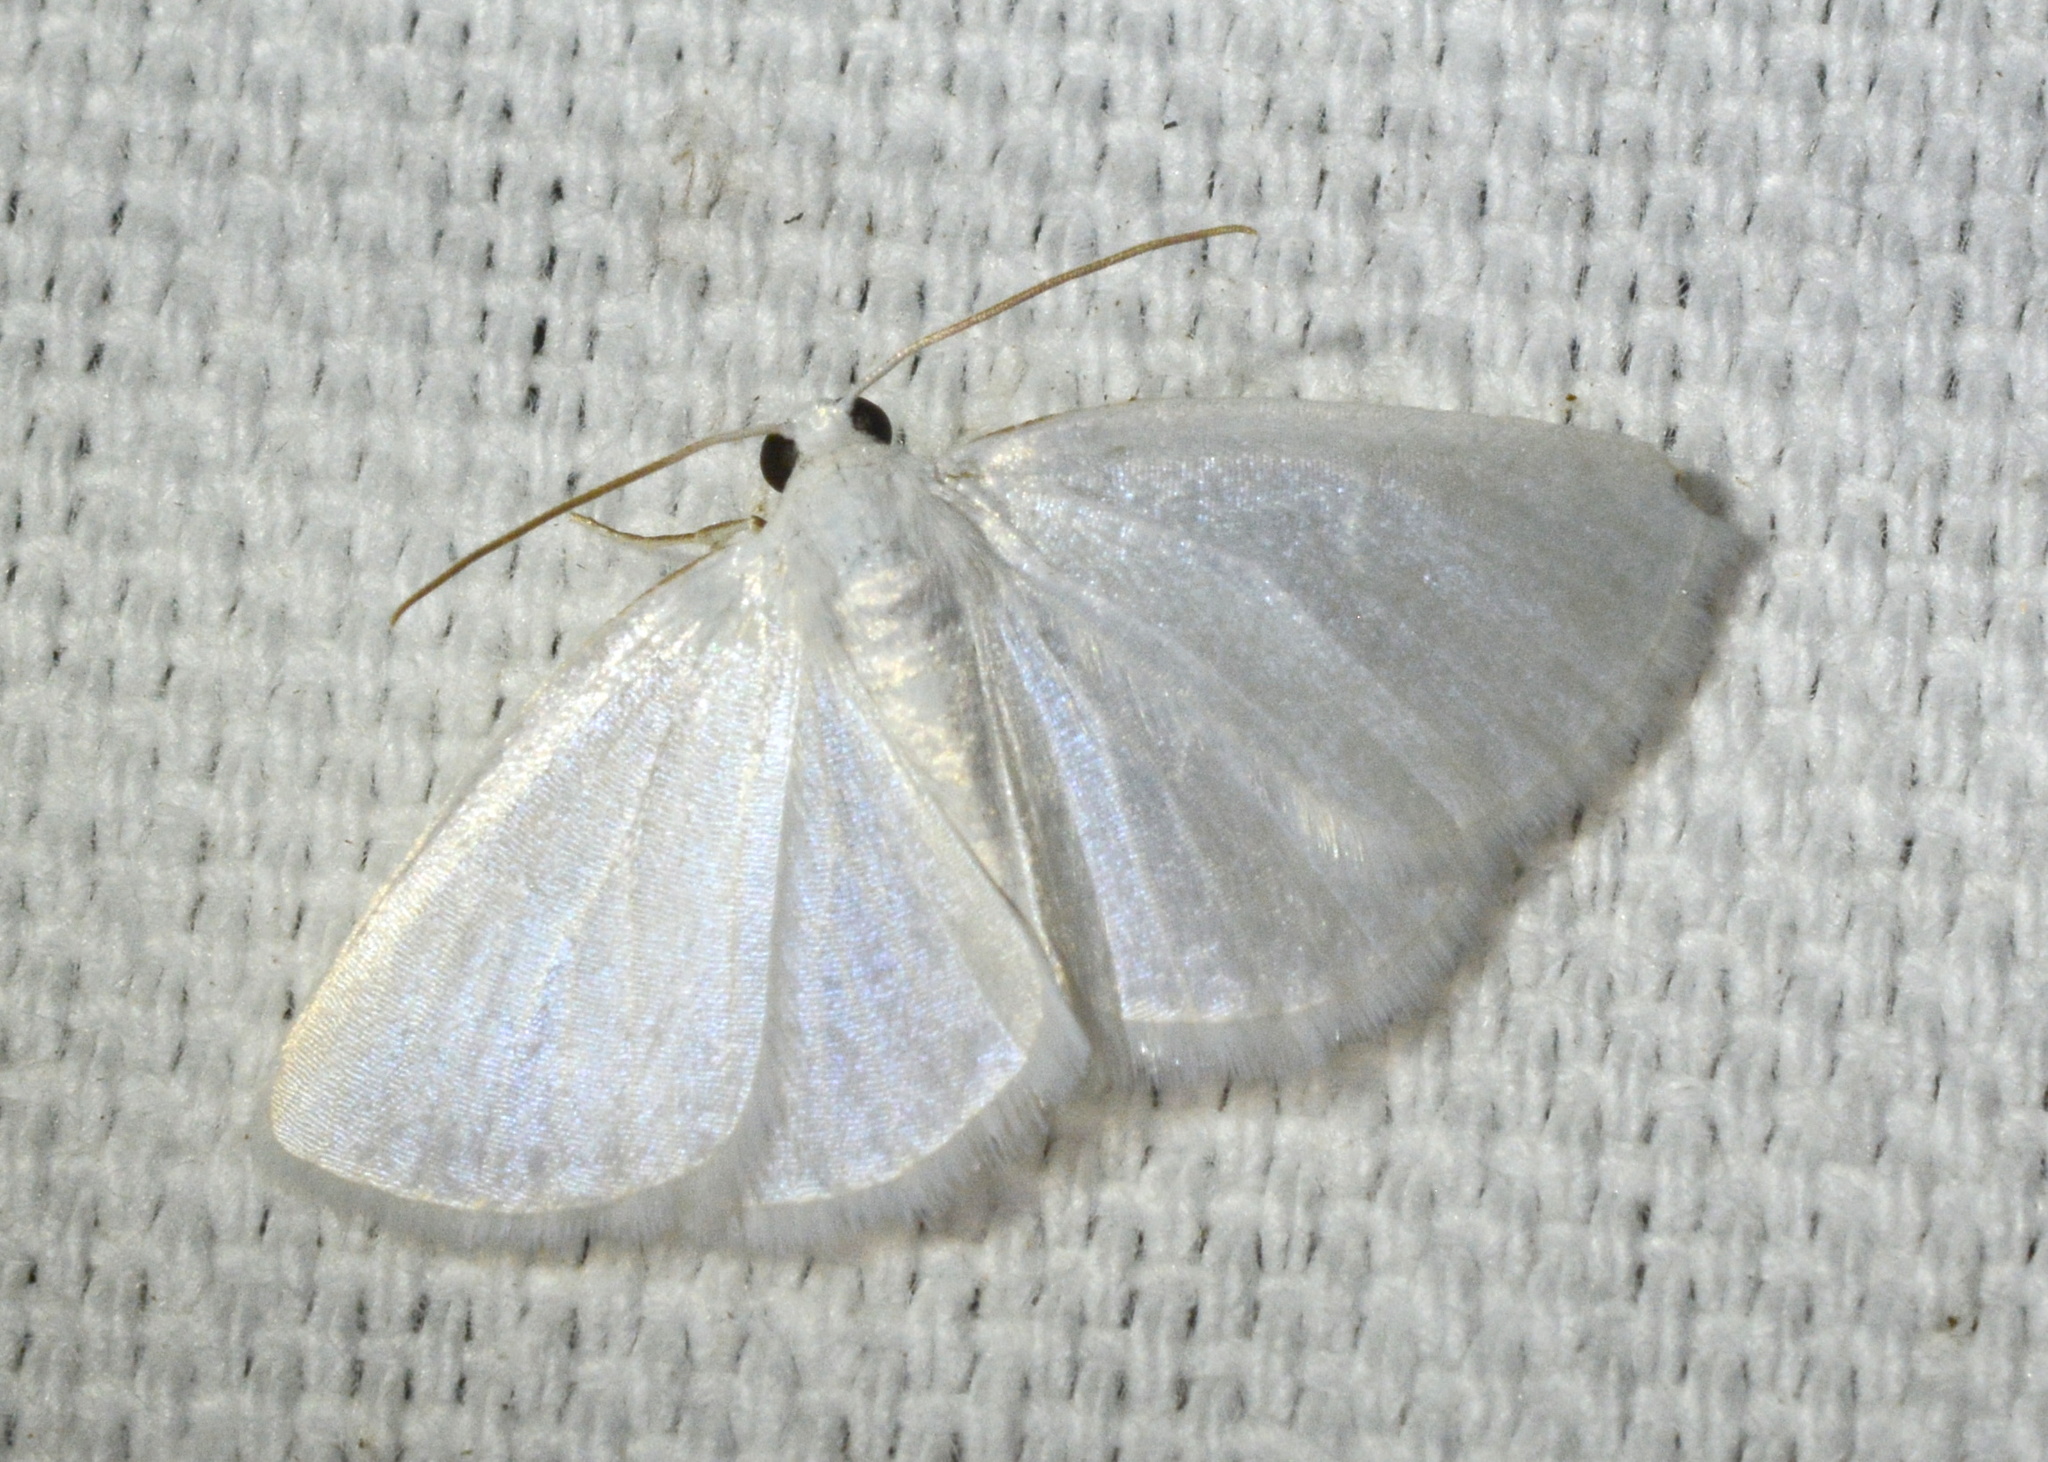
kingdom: Animalia
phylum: Arthropoda
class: Insecta
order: Lepidoptera
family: Geometridae
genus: Lomographa
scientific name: Lomographa vestaliata
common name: White spring moth
